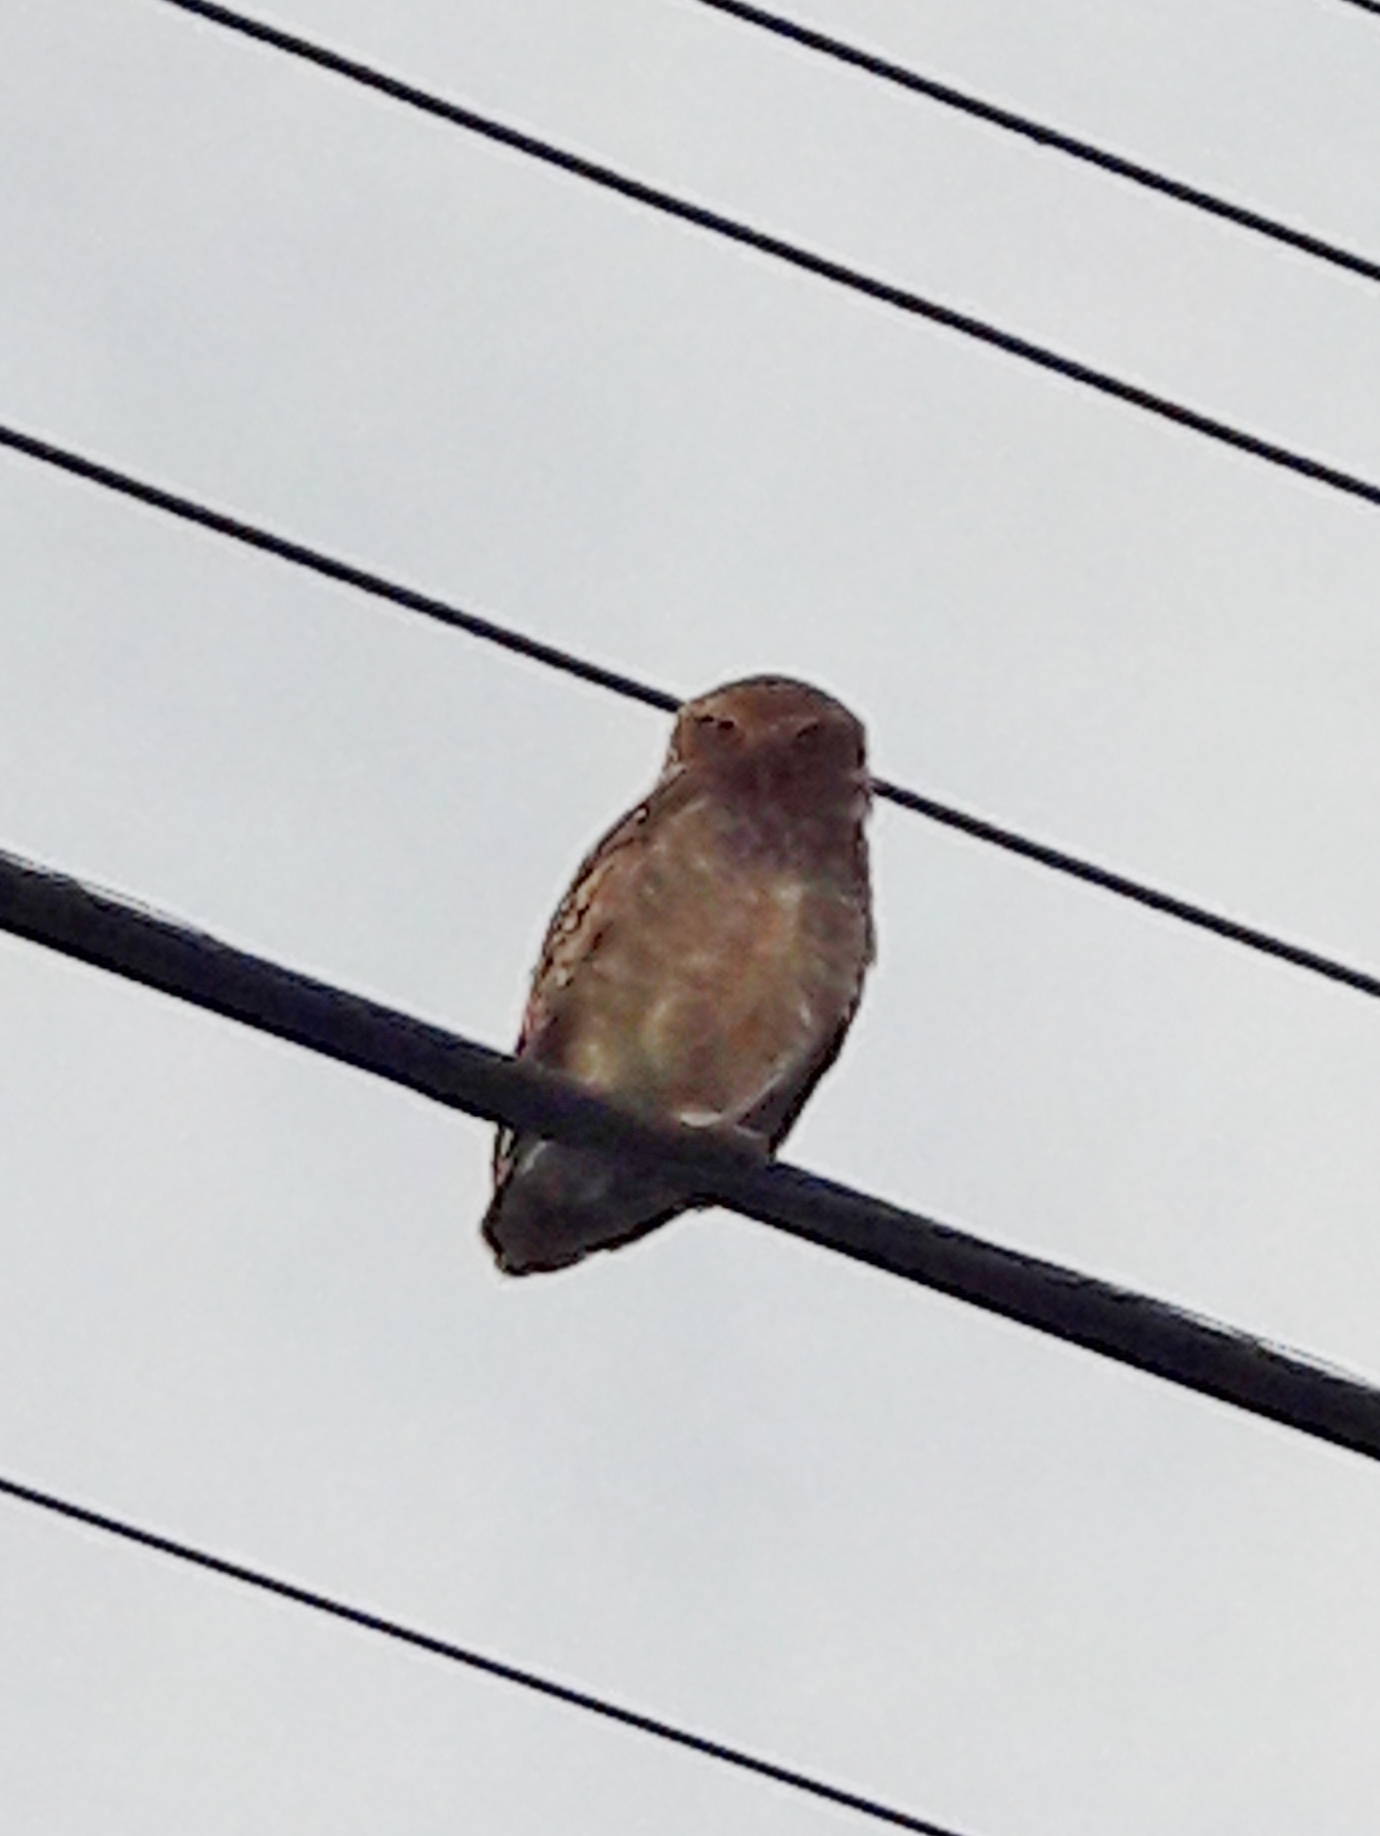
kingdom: Animalia
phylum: Chordata
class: Aves
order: Strigiformes
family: Strigidae
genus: Athene
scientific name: Athene cunicularia
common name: Burrowing owl
